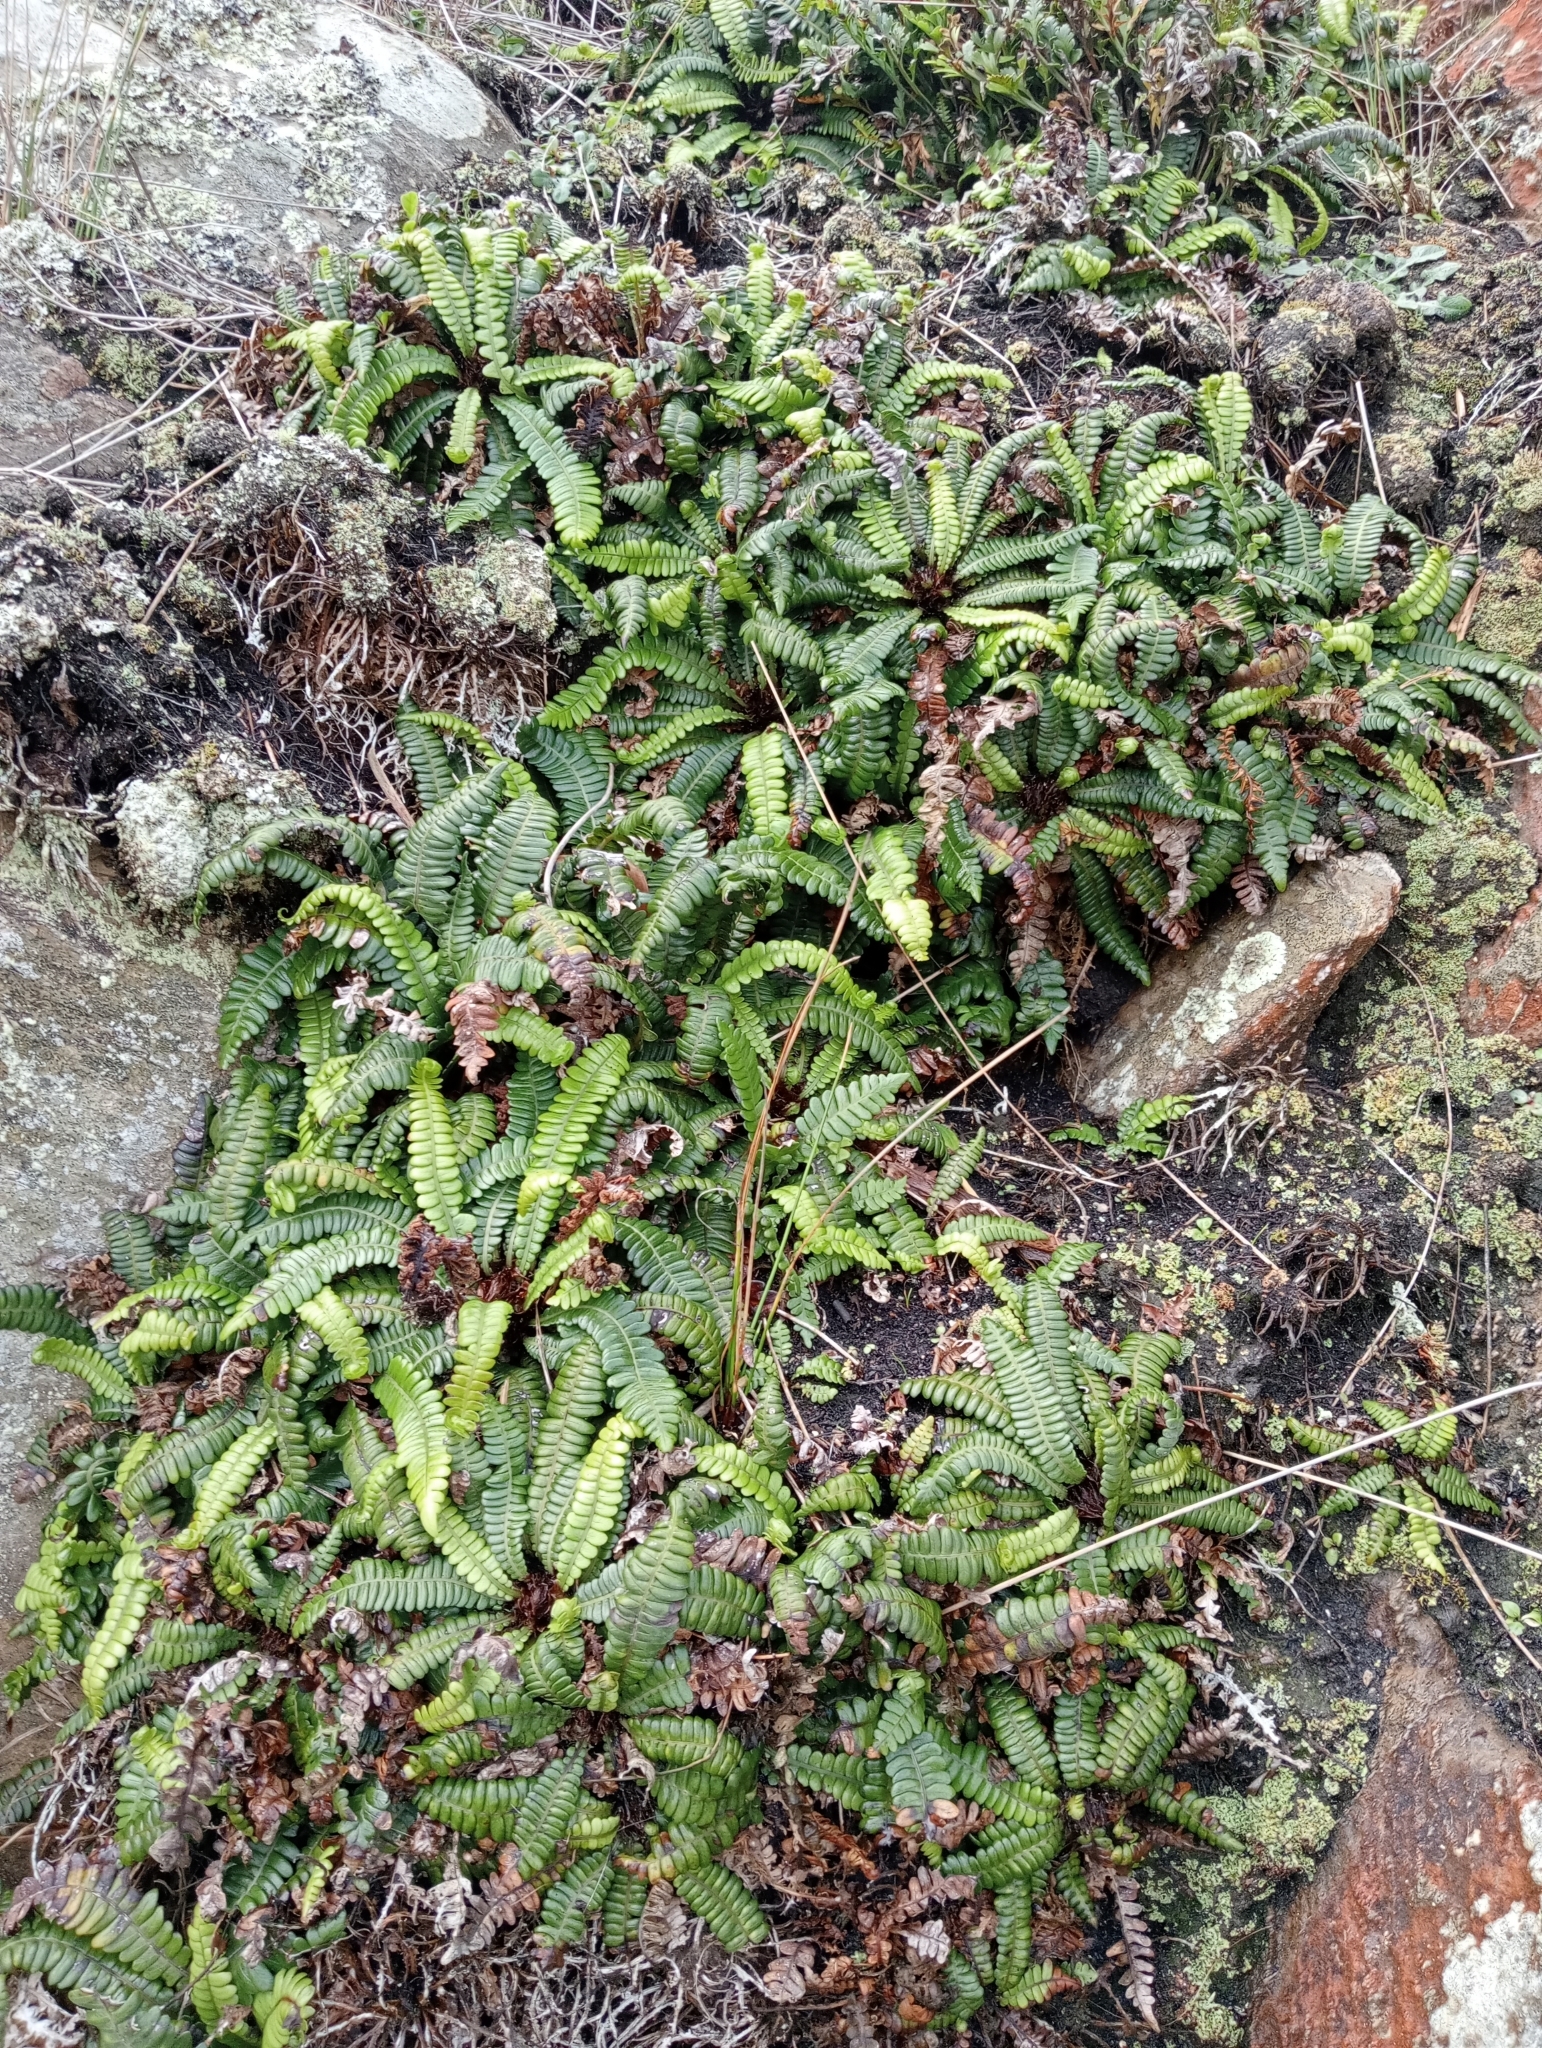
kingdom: Plantae
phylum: Tracheophyta
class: Polypodiopsida
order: Polypodiales
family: Blechnaceae
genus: Austroblechnum
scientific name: Austroblechnum durum
